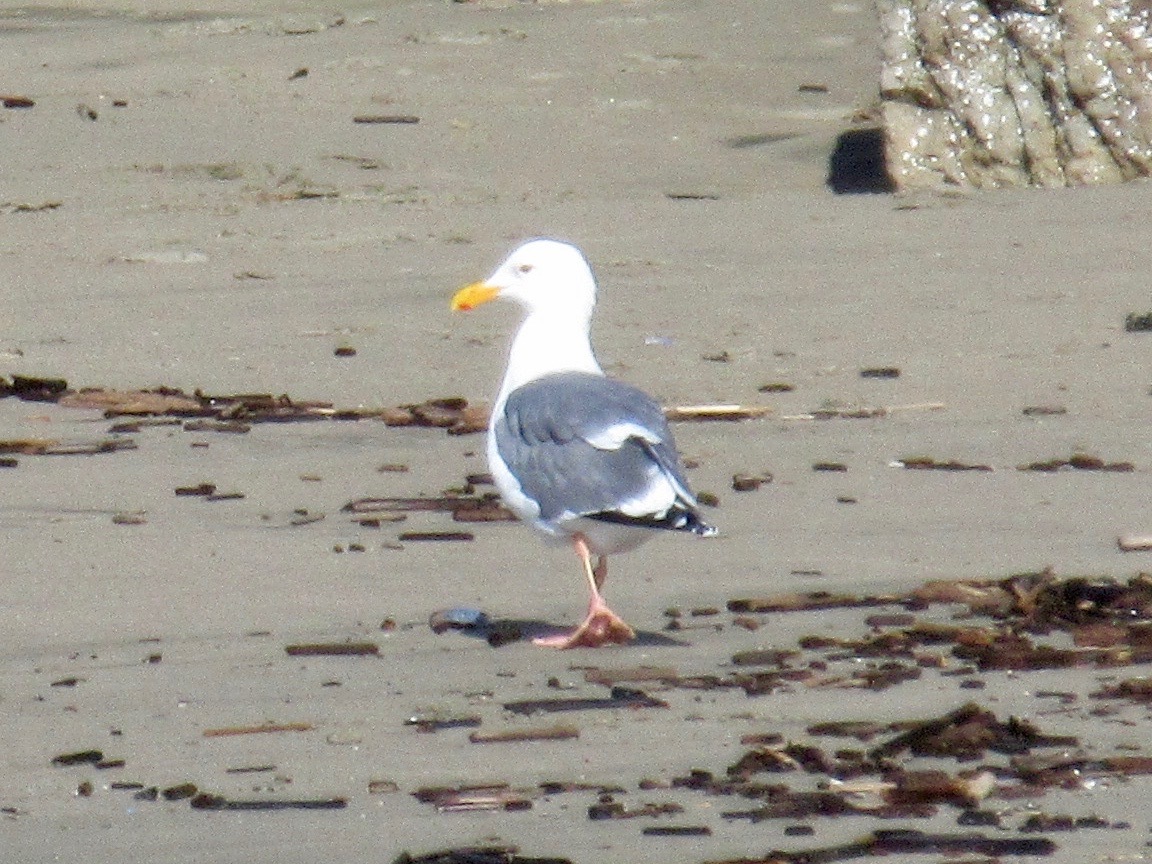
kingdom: Animalia
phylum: Chordata
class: Aves
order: Charadriiformes
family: Laridae
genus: Larus
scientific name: Larus occidentalis
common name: Western gull
